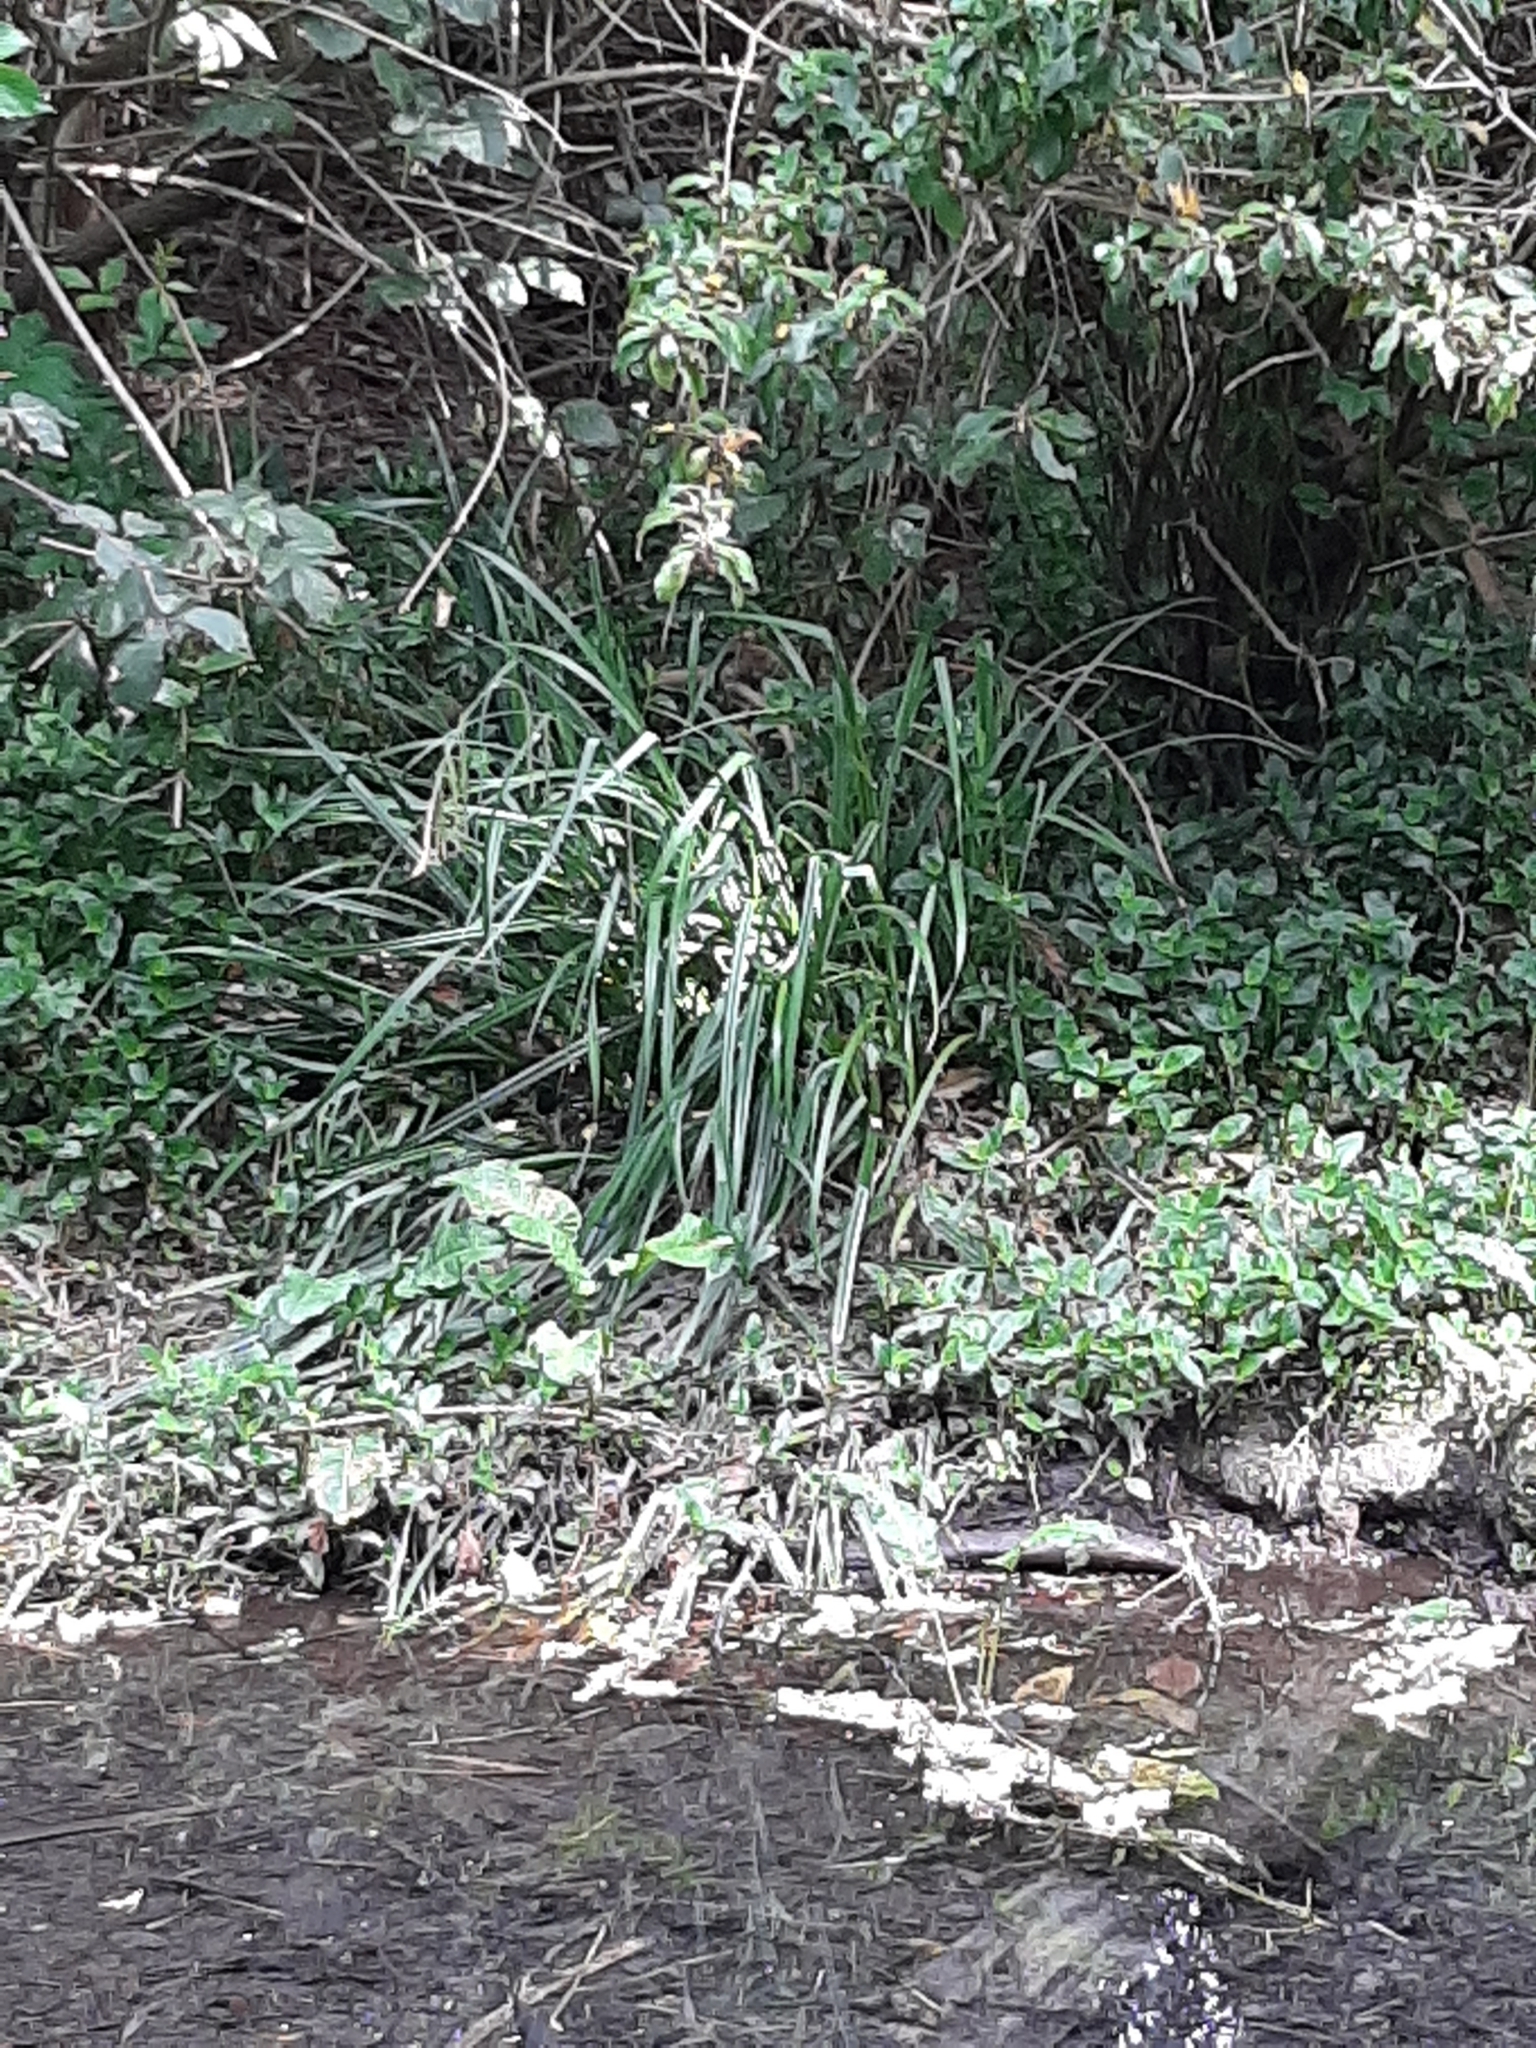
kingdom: Plantae
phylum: Tracheophyta
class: Liliopsida
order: Poales
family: Cyperaceae
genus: Carex
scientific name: Carex pendula
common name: Pendulous sedge
